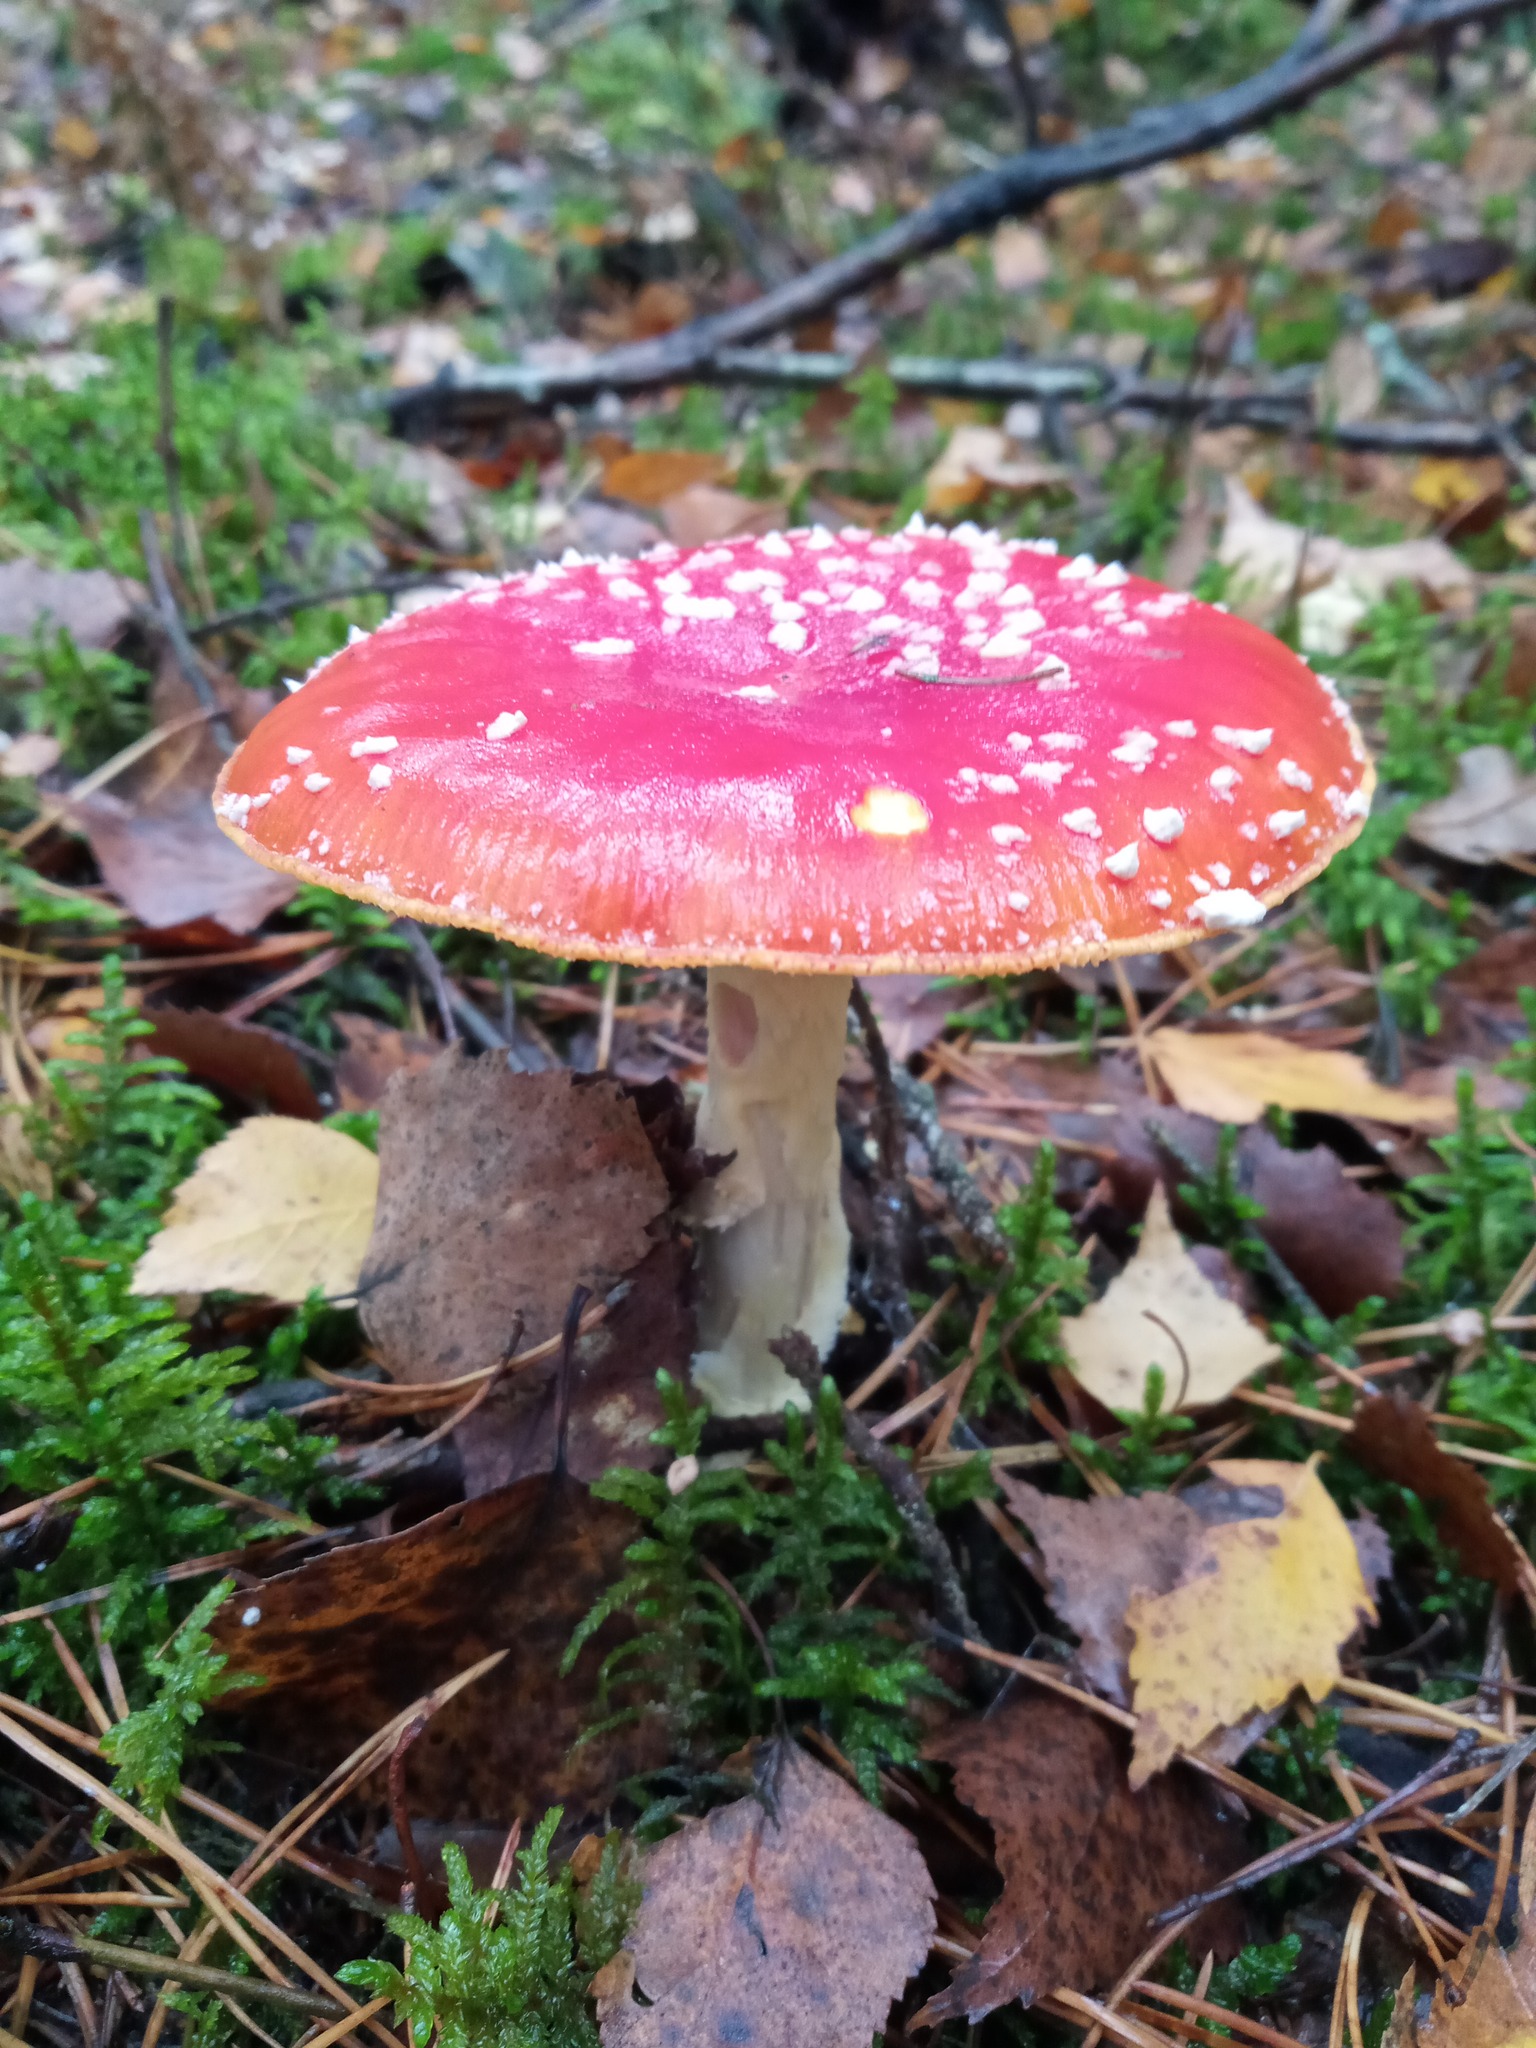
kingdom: Fungi
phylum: Basidiomycota
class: Agaricomycetes
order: Agaricales
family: Amanitaceae
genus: Amanita
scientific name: Amanita muscaria
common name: Fly agaric
